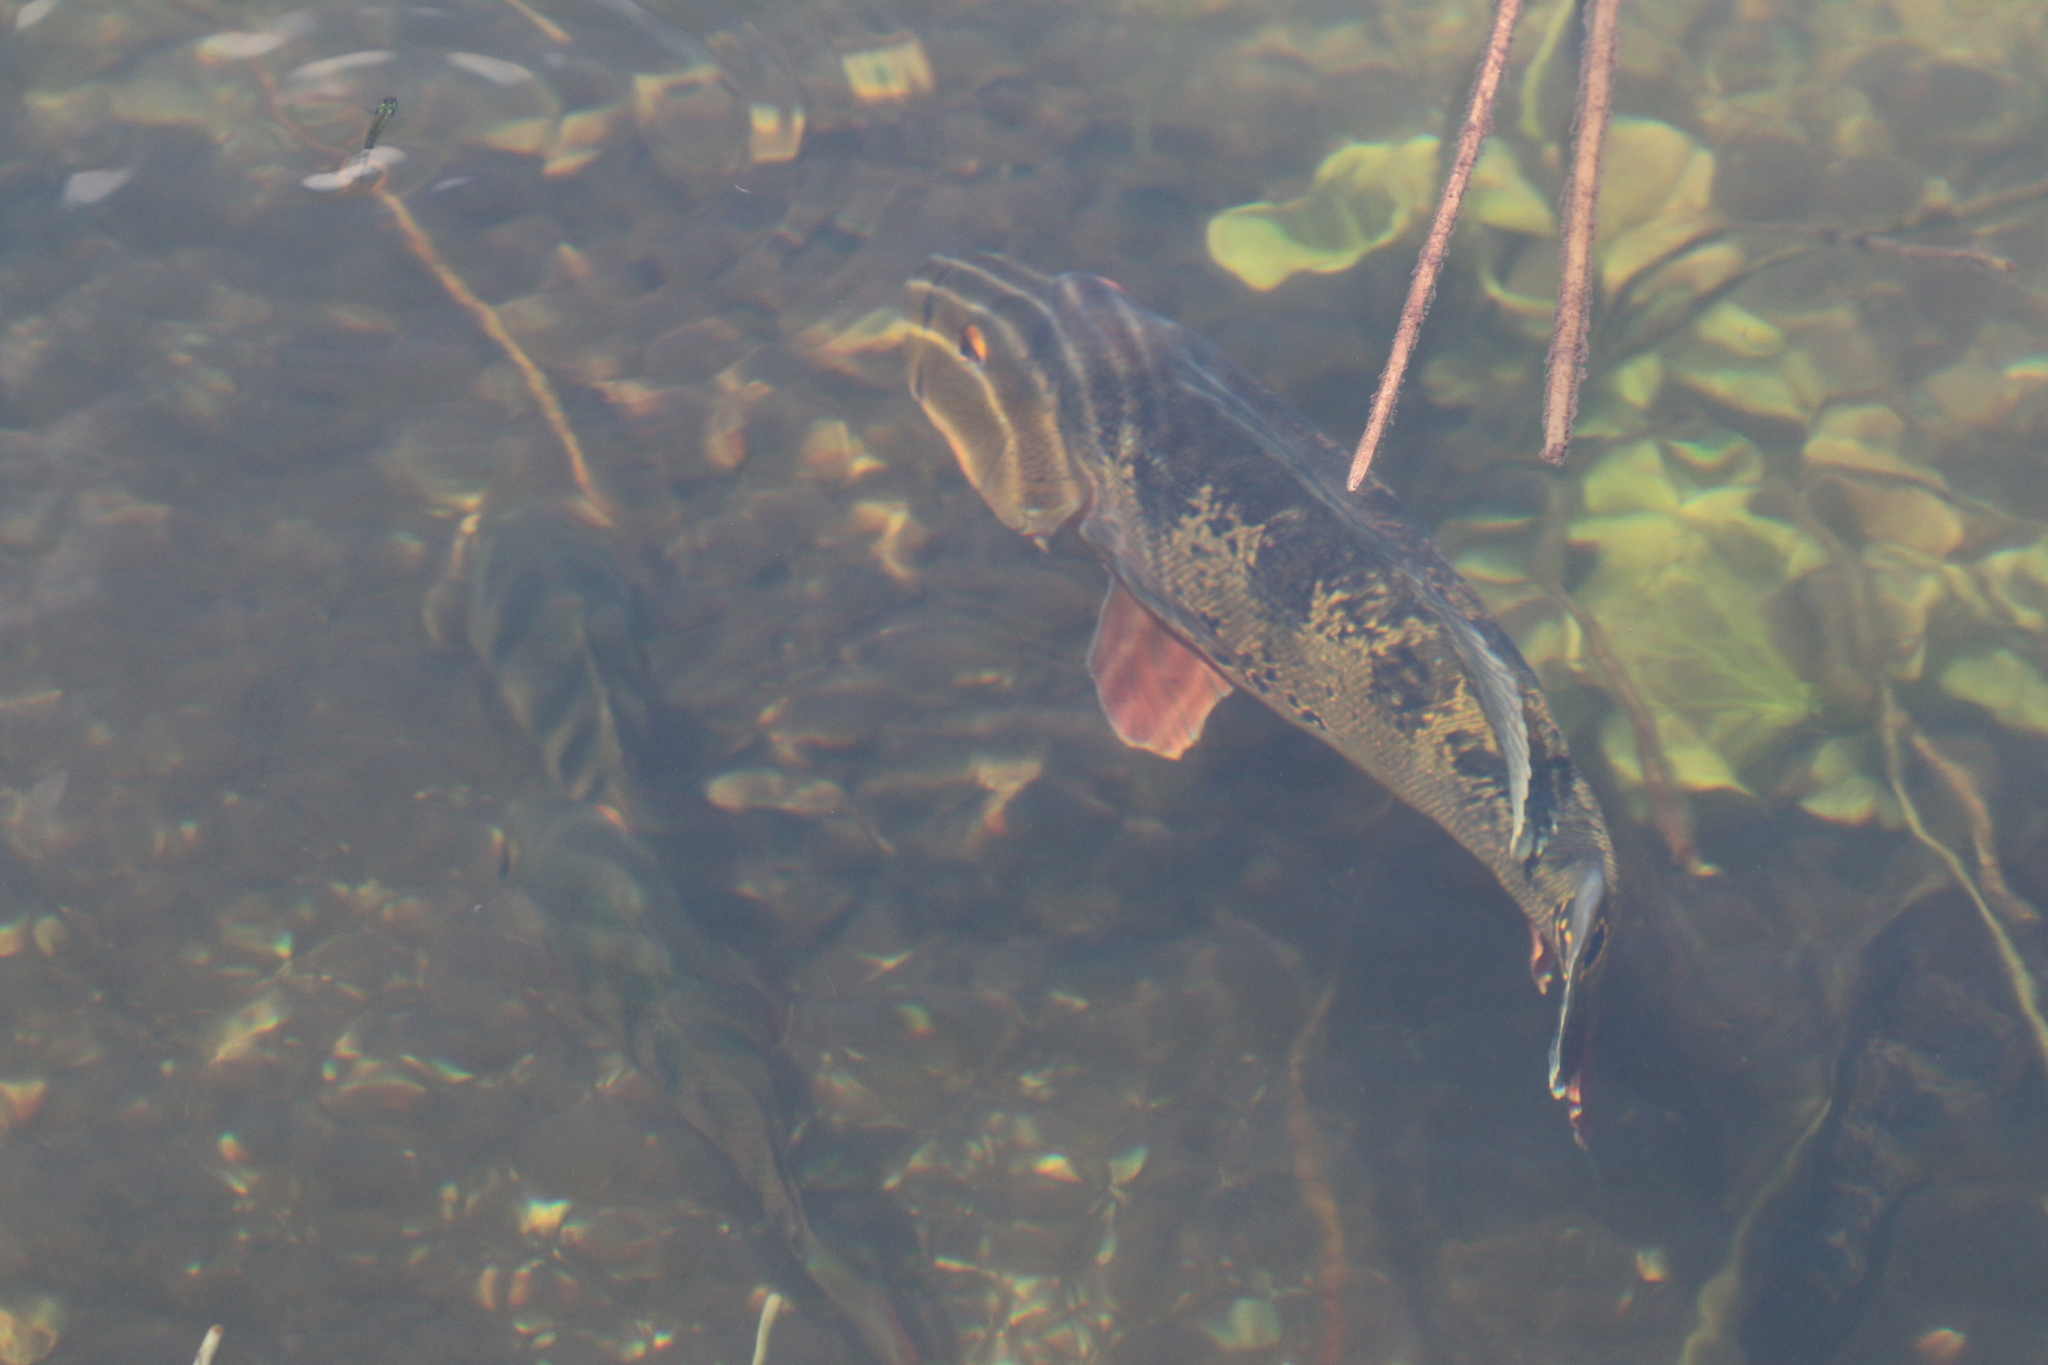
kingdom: Animalia
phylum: Chordata
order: Perciformes
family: Cichlidae
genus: Cichla
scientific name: Cichla ocellaris
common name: Peacock cichlid
